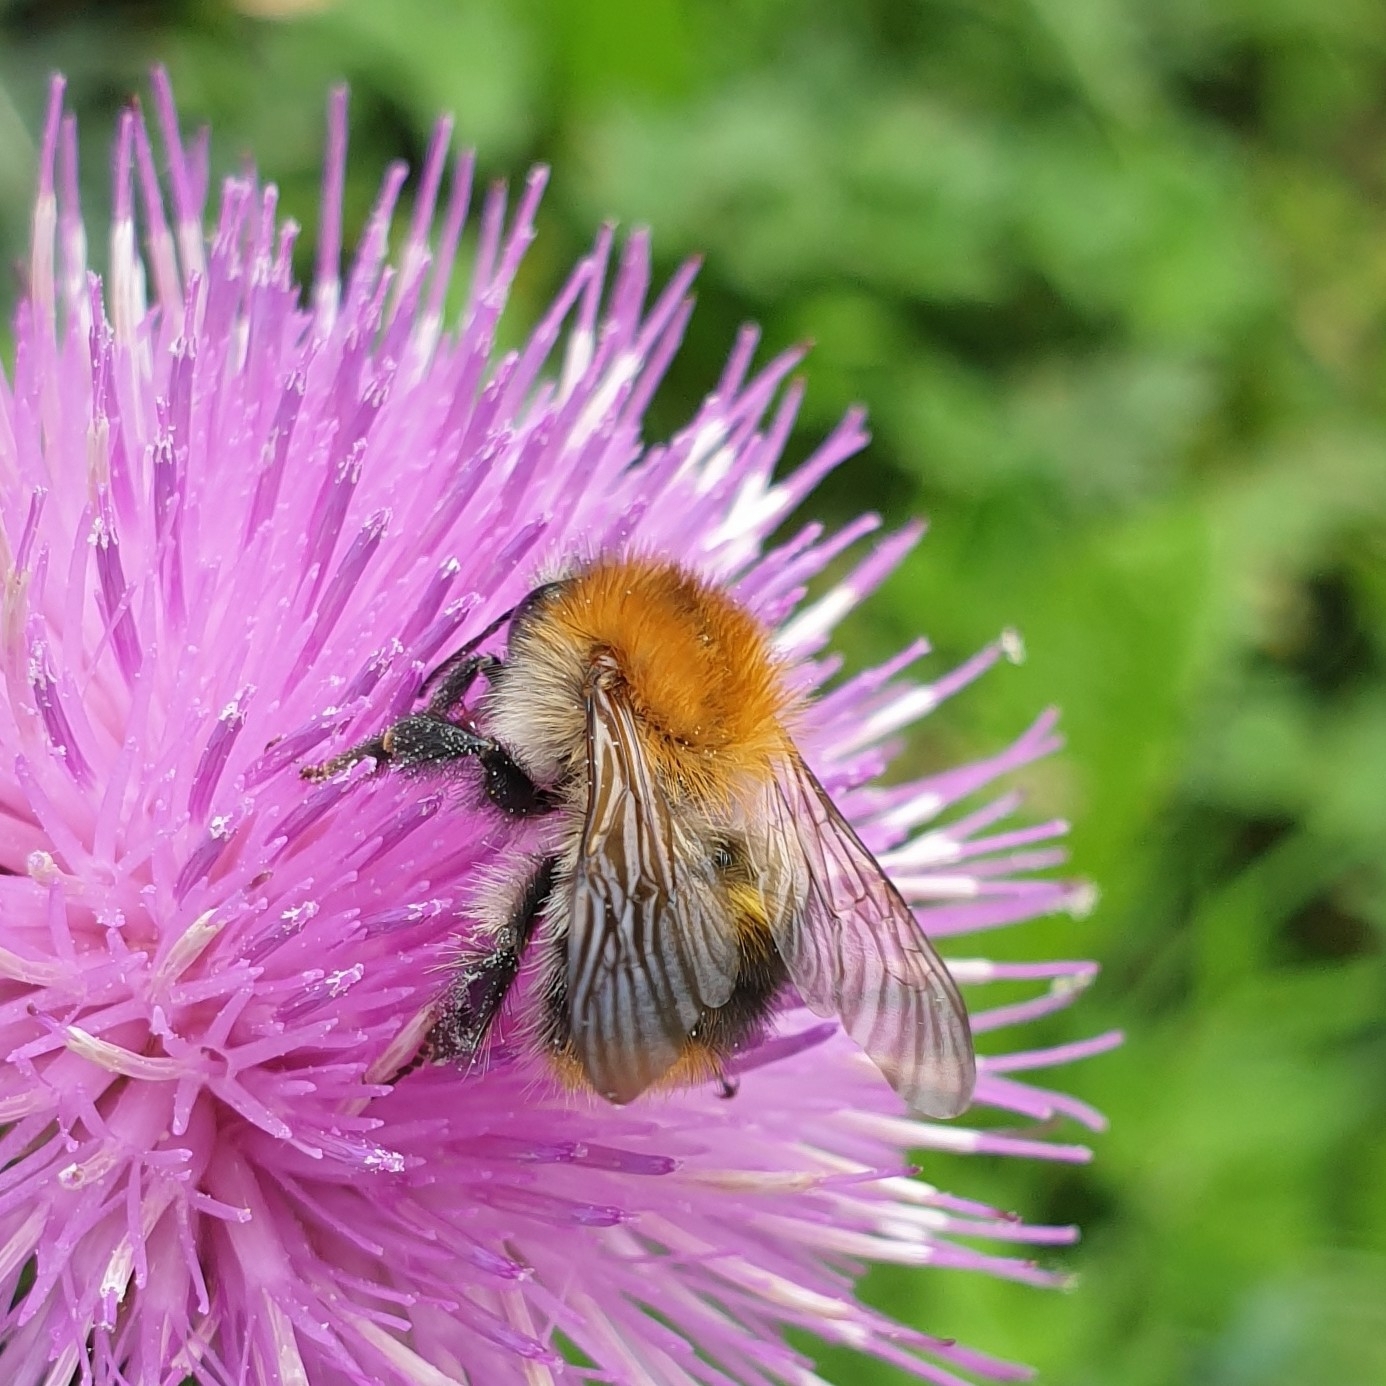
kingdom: Animalia
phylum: Arthropoda
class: Insecta
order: Hymenoptera
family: Apidae
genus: Bombus
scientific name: Bombus pascuorum
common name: Common carder bee
